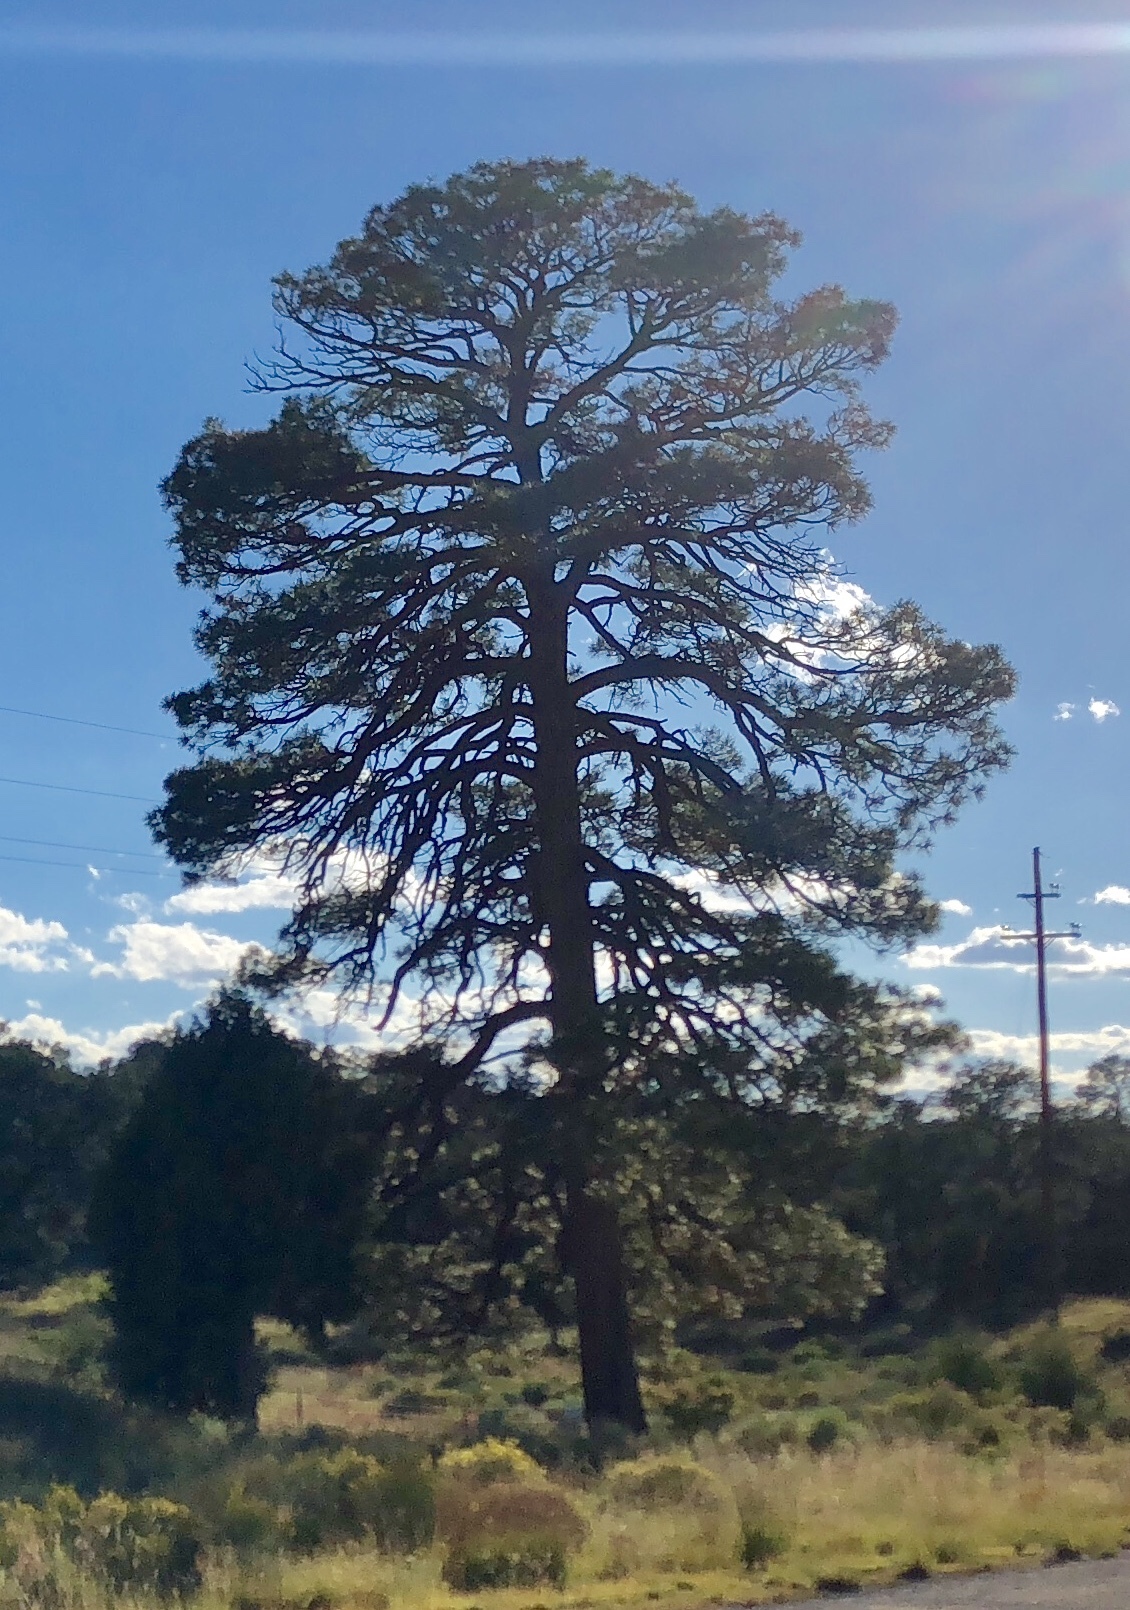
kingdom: Plantae
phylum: Tracheophyta
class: Pinopsida
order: Pinales
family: Pinaceae
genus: Pinus
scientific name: Pinus ponderosa
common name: Western yellow-pine
